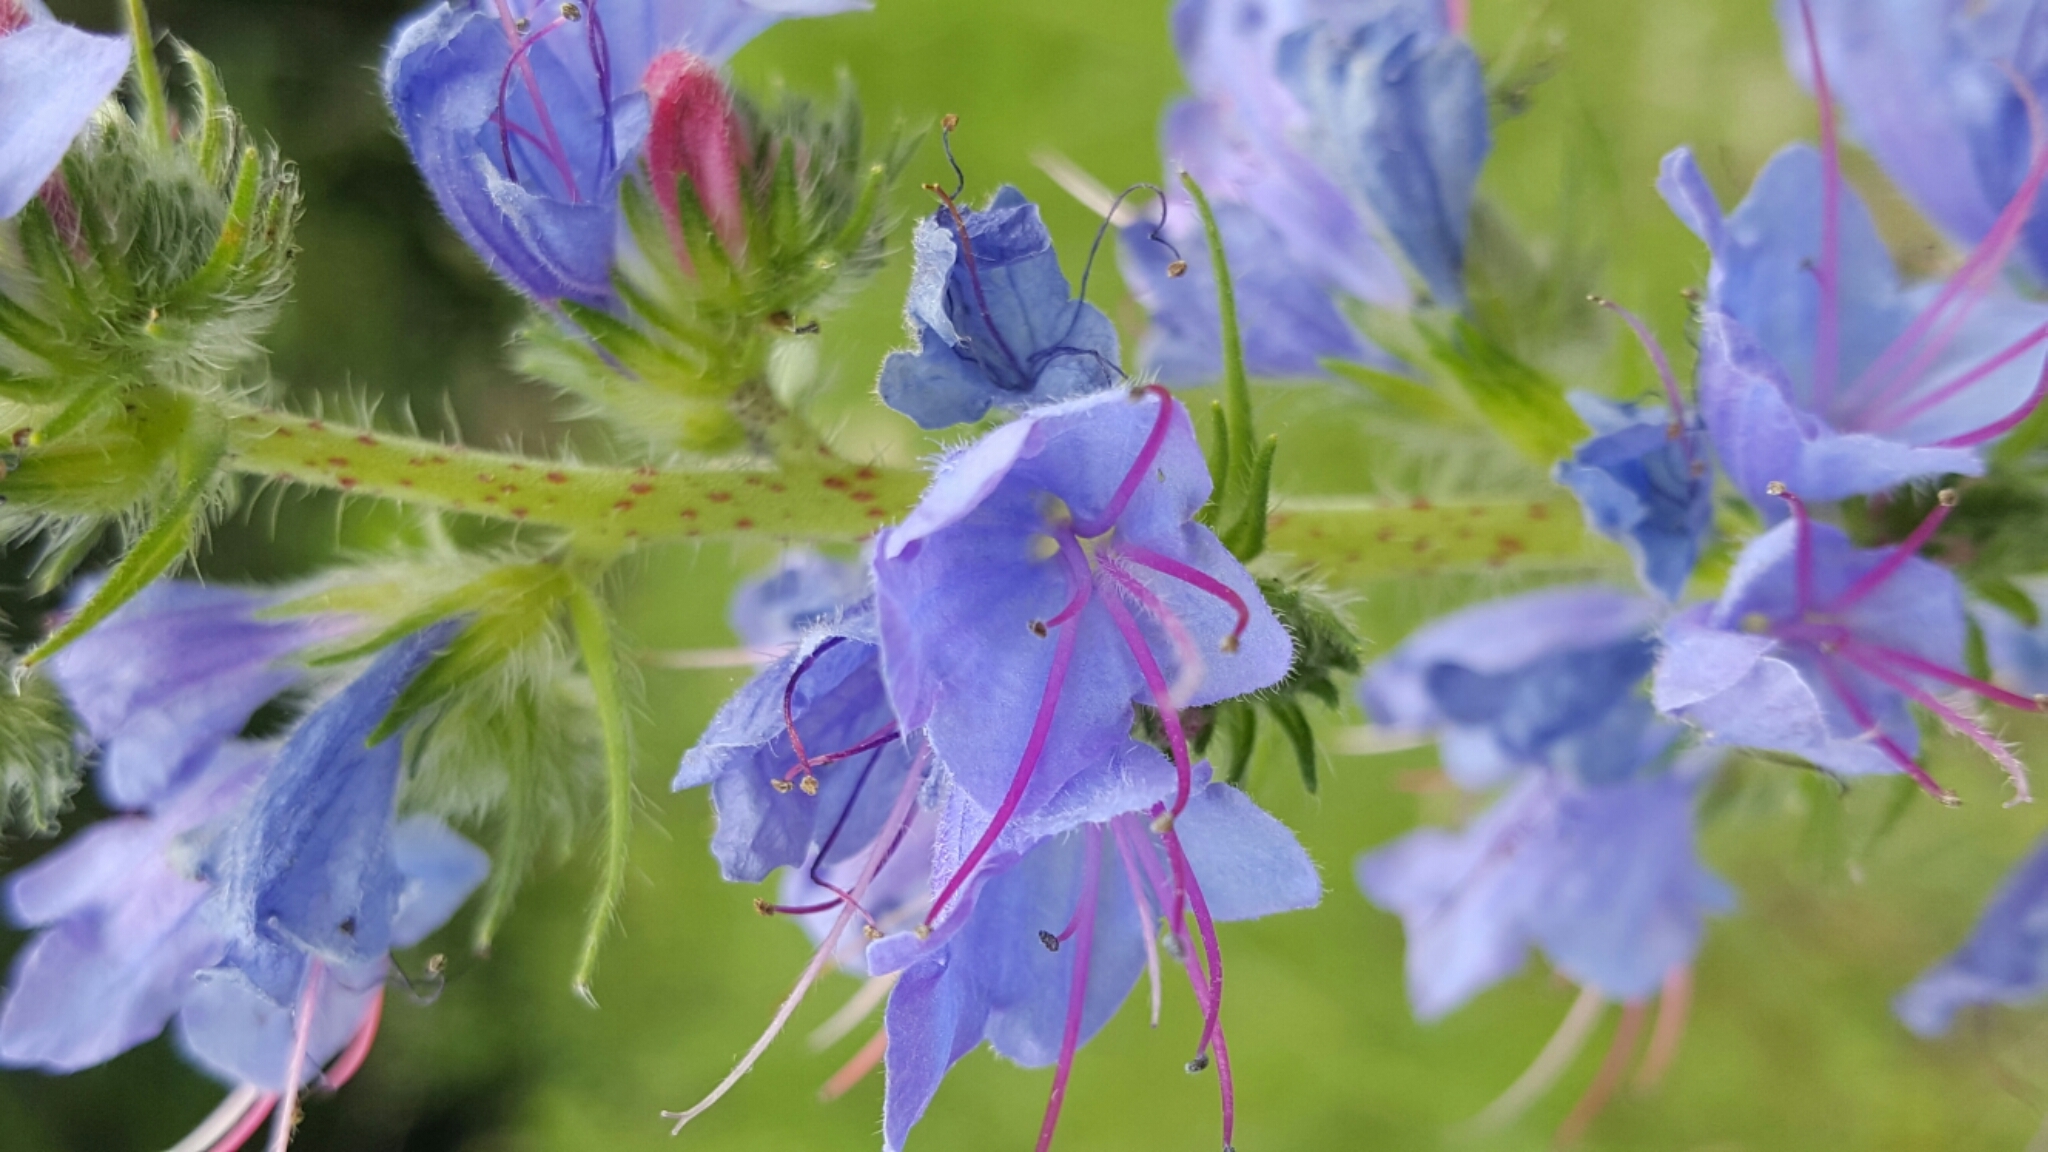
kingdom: Plantae
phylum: Tracheophyta
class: Magnoliopsida
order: Boraginales
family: Boraginaceae
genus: Echium
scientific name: Echium vulgare
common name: Common viper's bugloss
